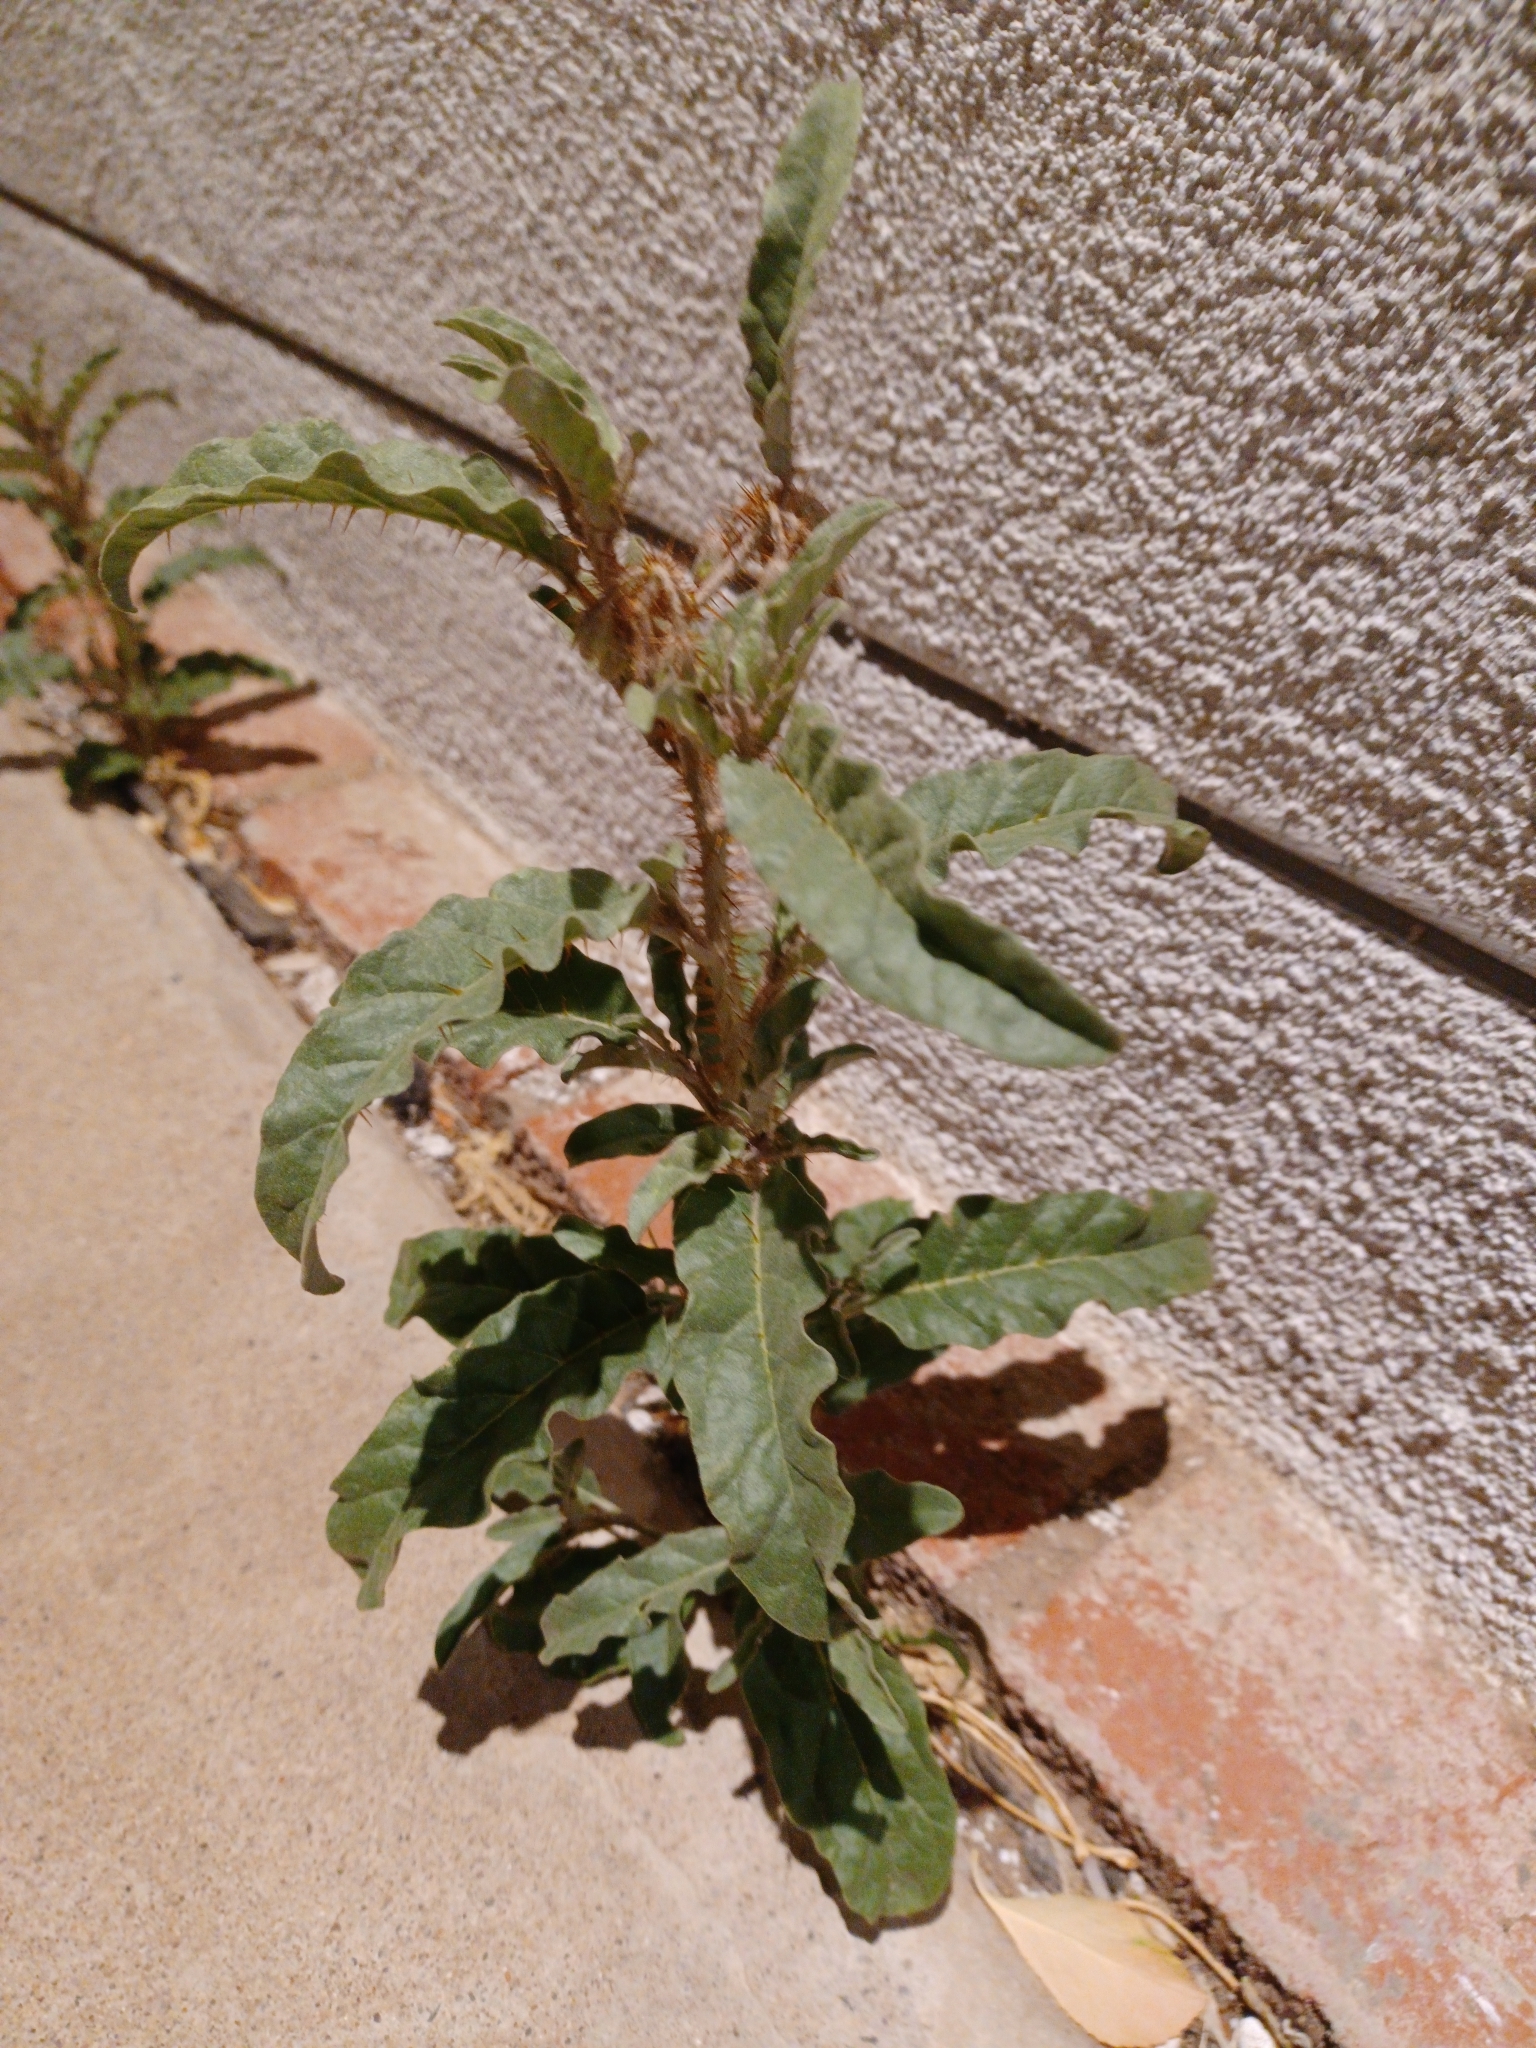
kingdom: Plantae
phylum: Tracheophyta
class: Magnoliopsida
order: Solanales
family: Solanaceae
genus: Solanum
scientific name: Solanum elaeagnifolium
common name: Silverleaf nightshade
